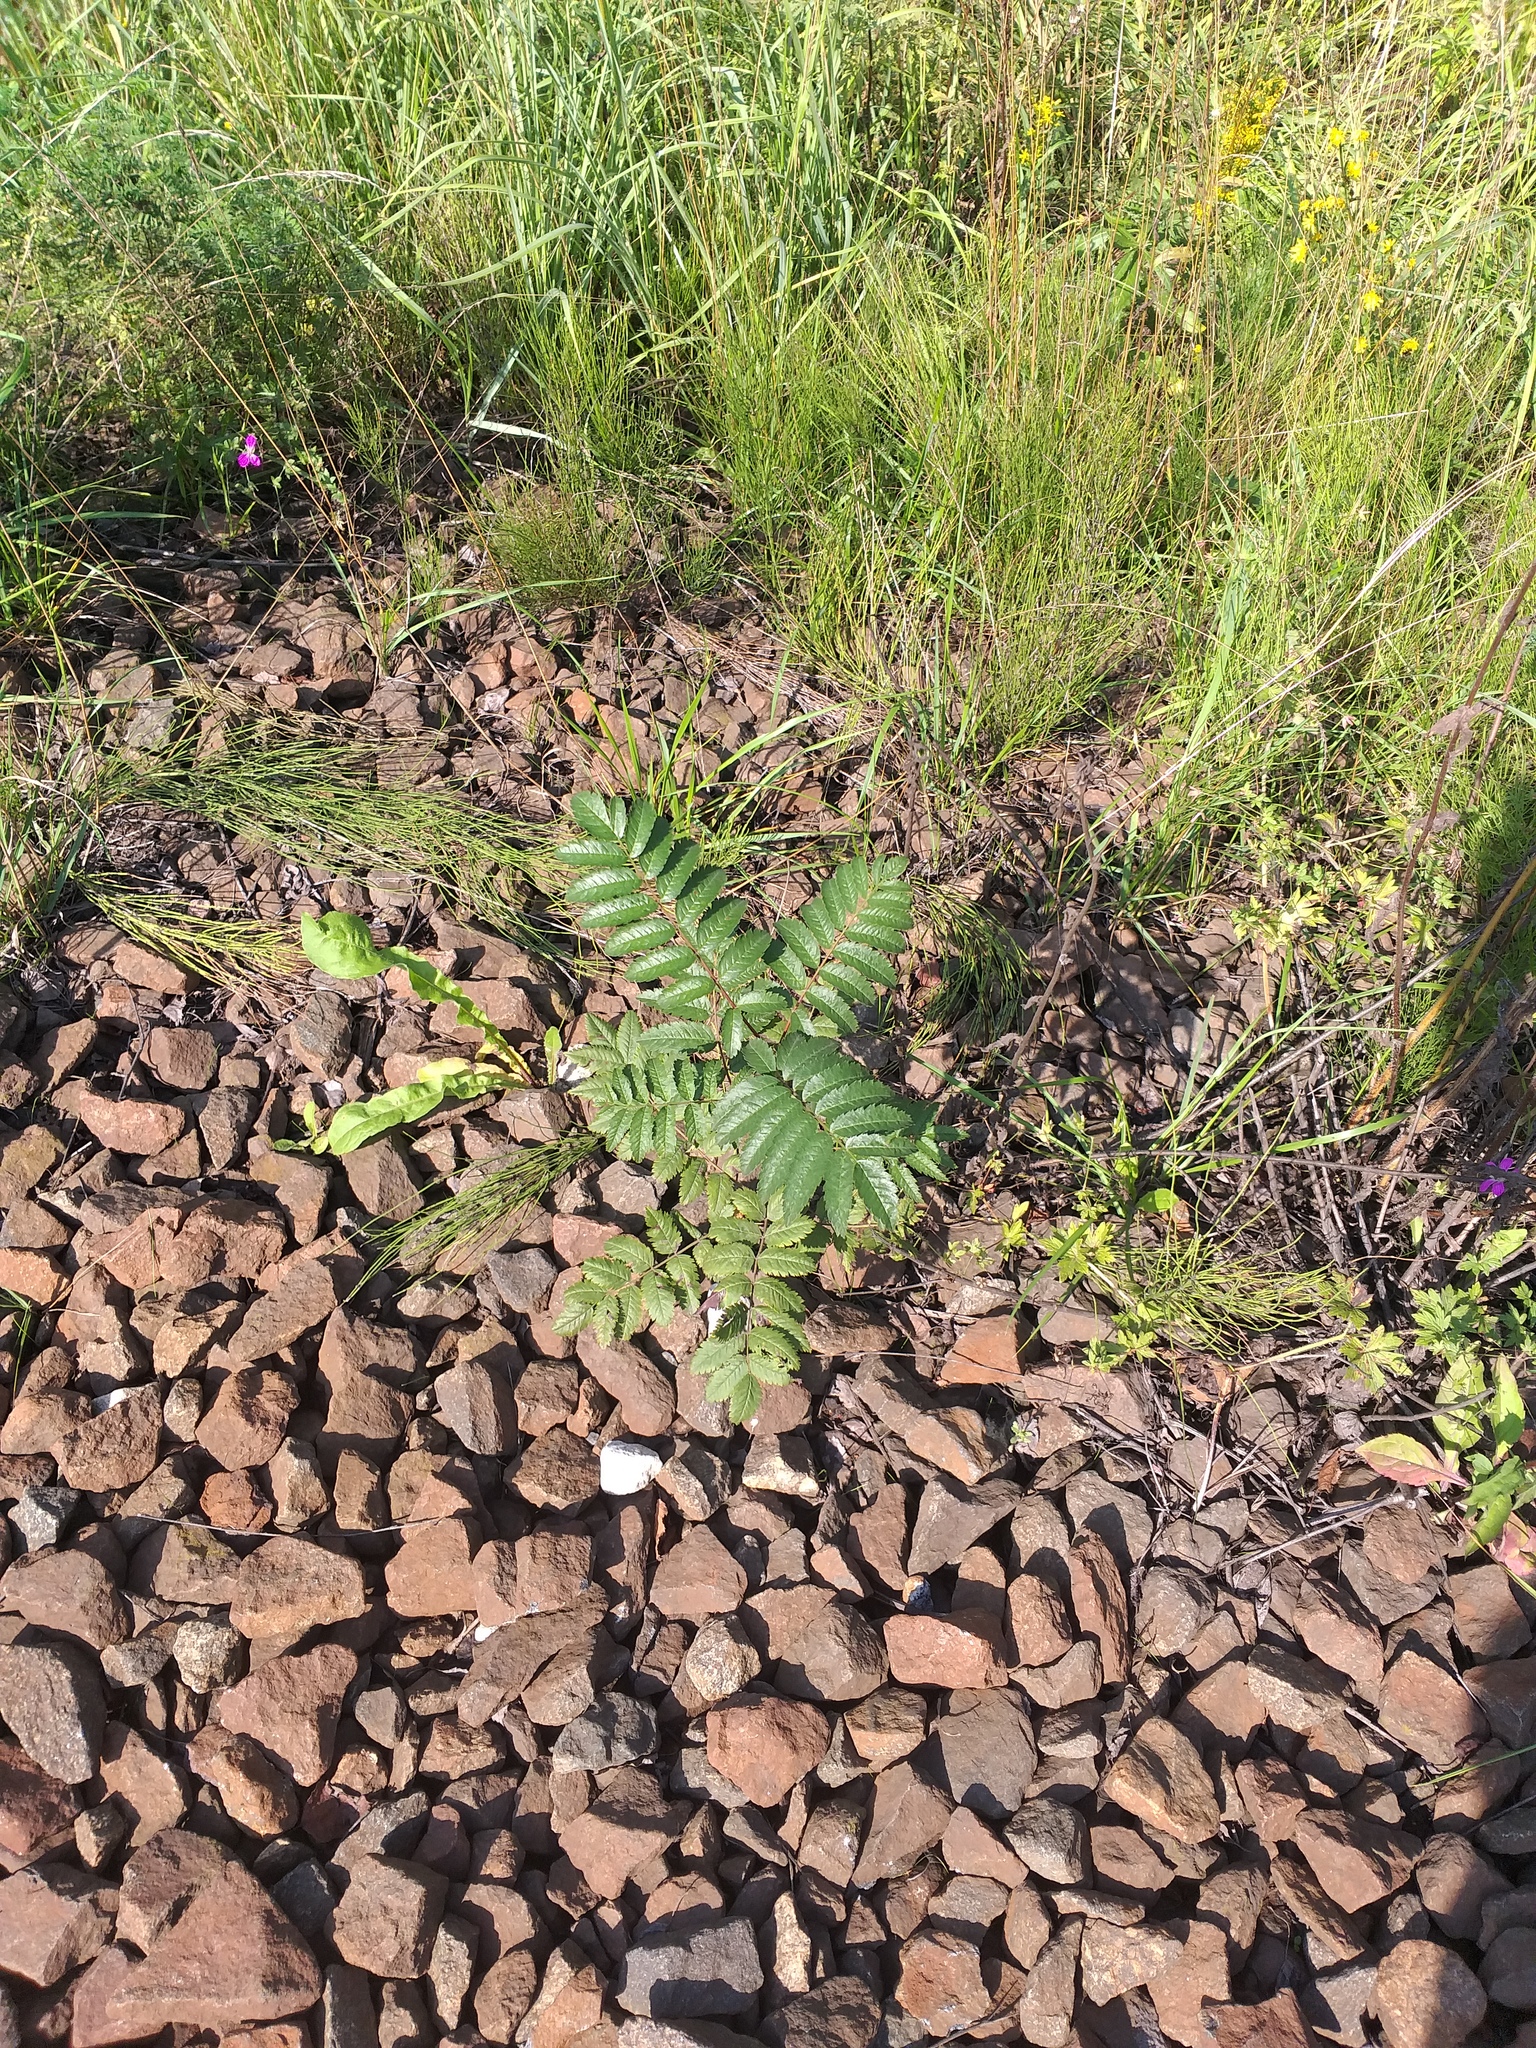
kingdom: Plantae
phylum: Tracheophyta
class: Magnoliopsida
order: Rosales
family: Rosaceae
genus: Sorbus
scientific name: Sorbus aucuparia
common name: Rowan
